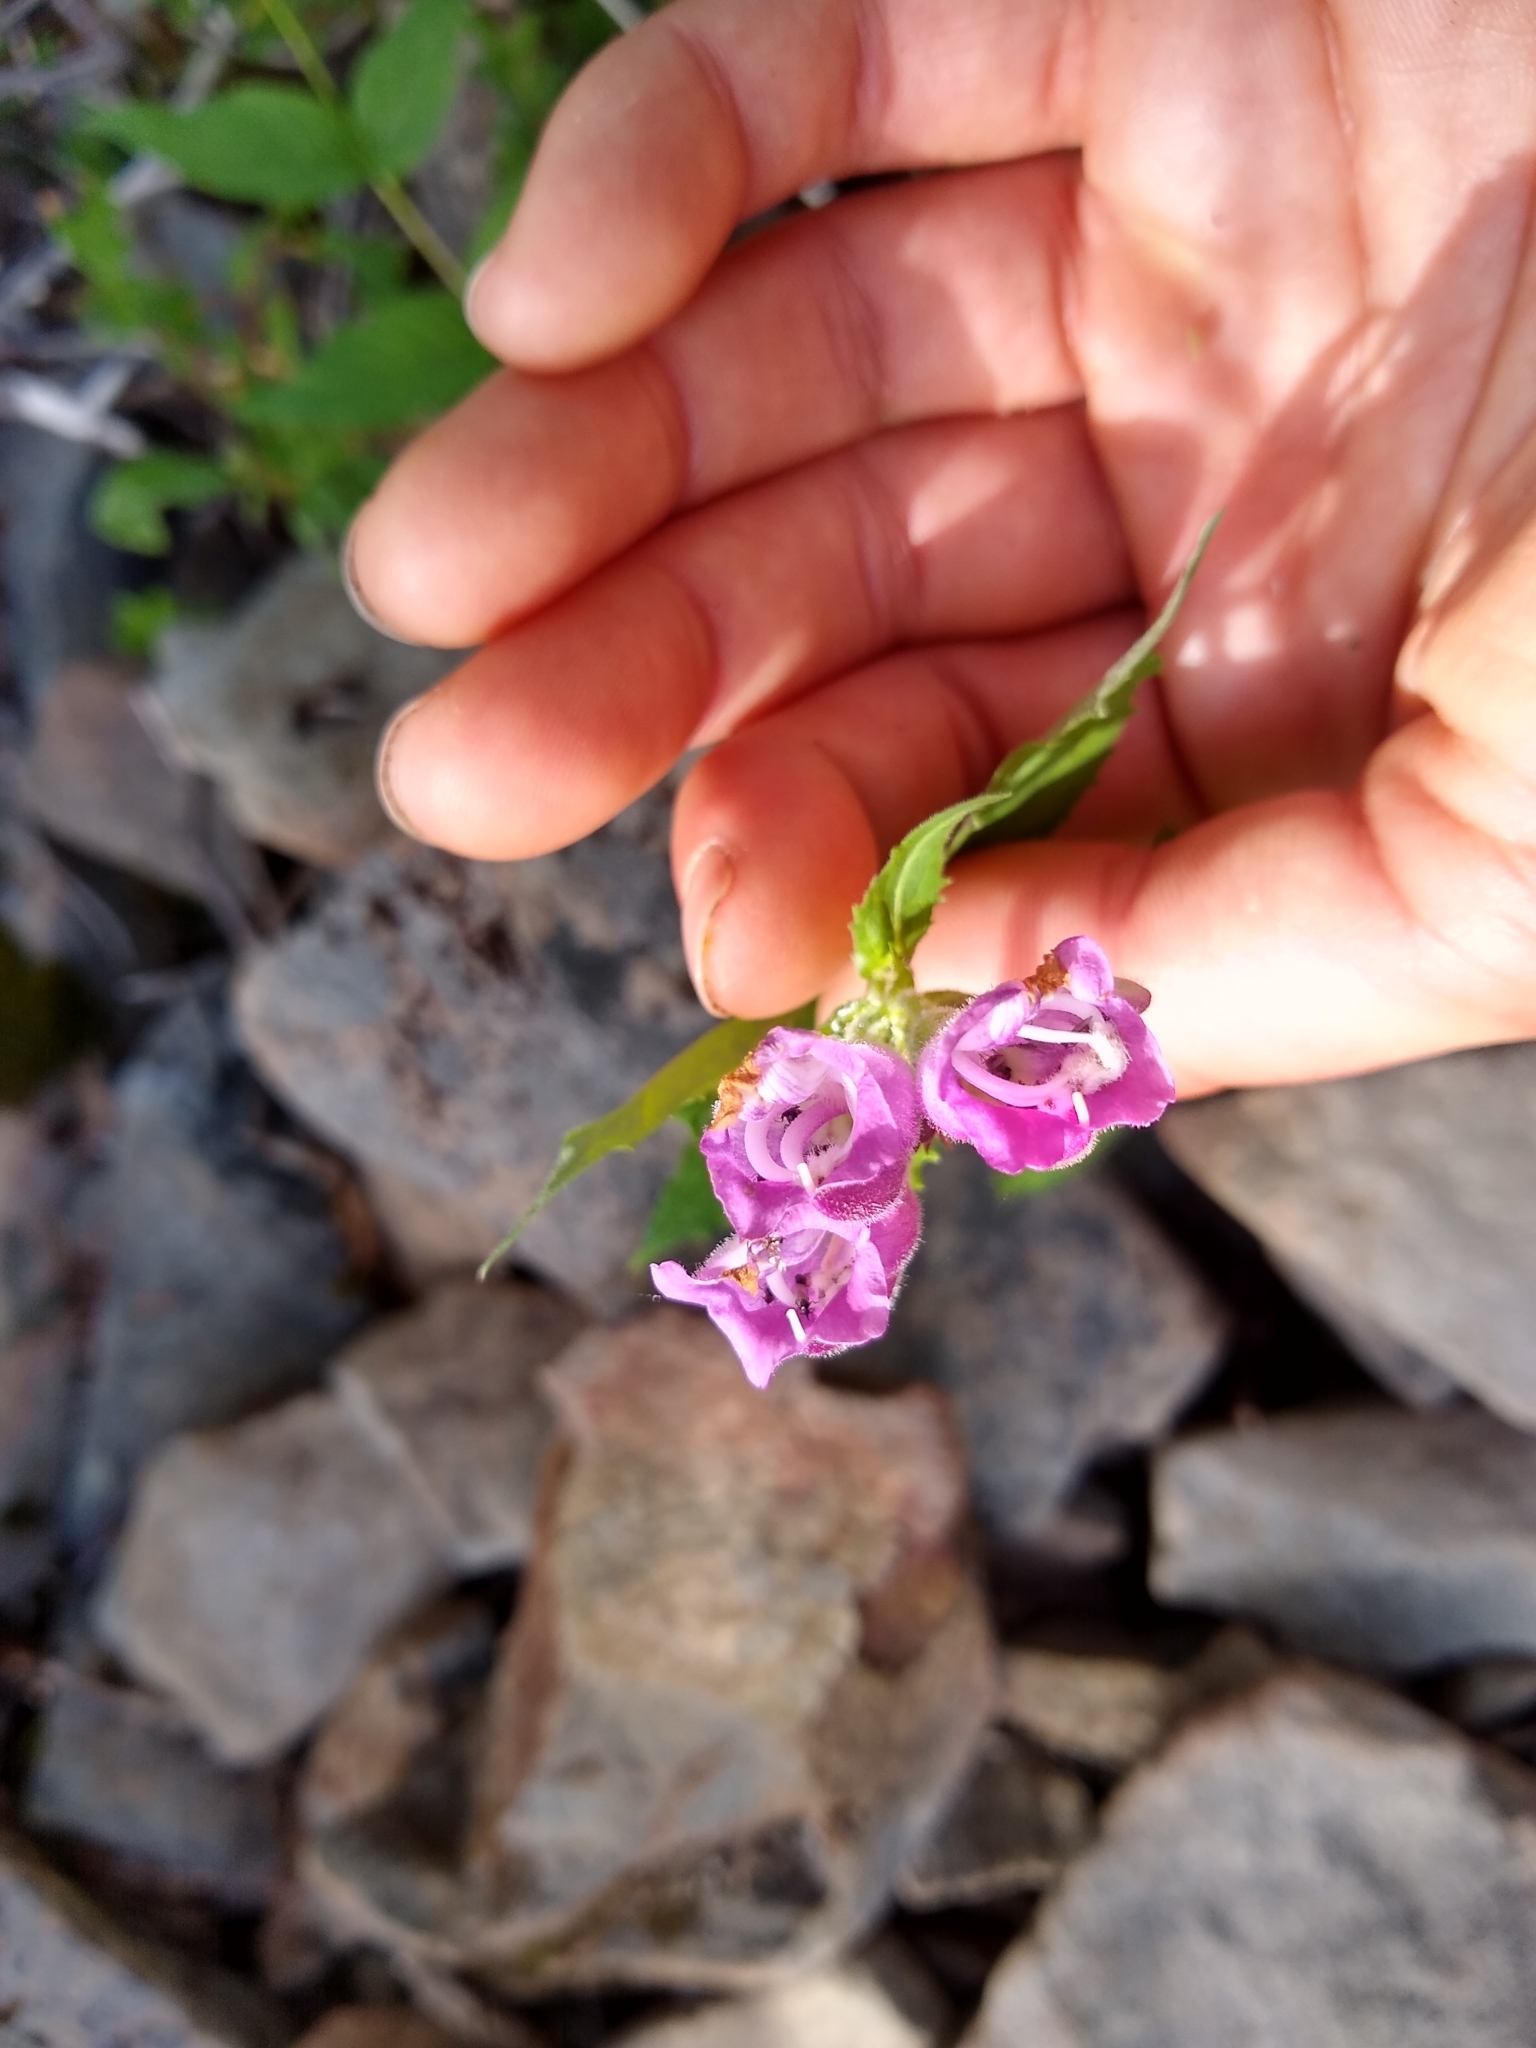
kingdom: Plantae
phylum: Tracheophyta
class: Magnoliopsida
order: Lamiales
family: Plantaginaceae
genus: Nothochelone
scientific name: Nothochelone nemorosa
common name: Woodland beardtongue
